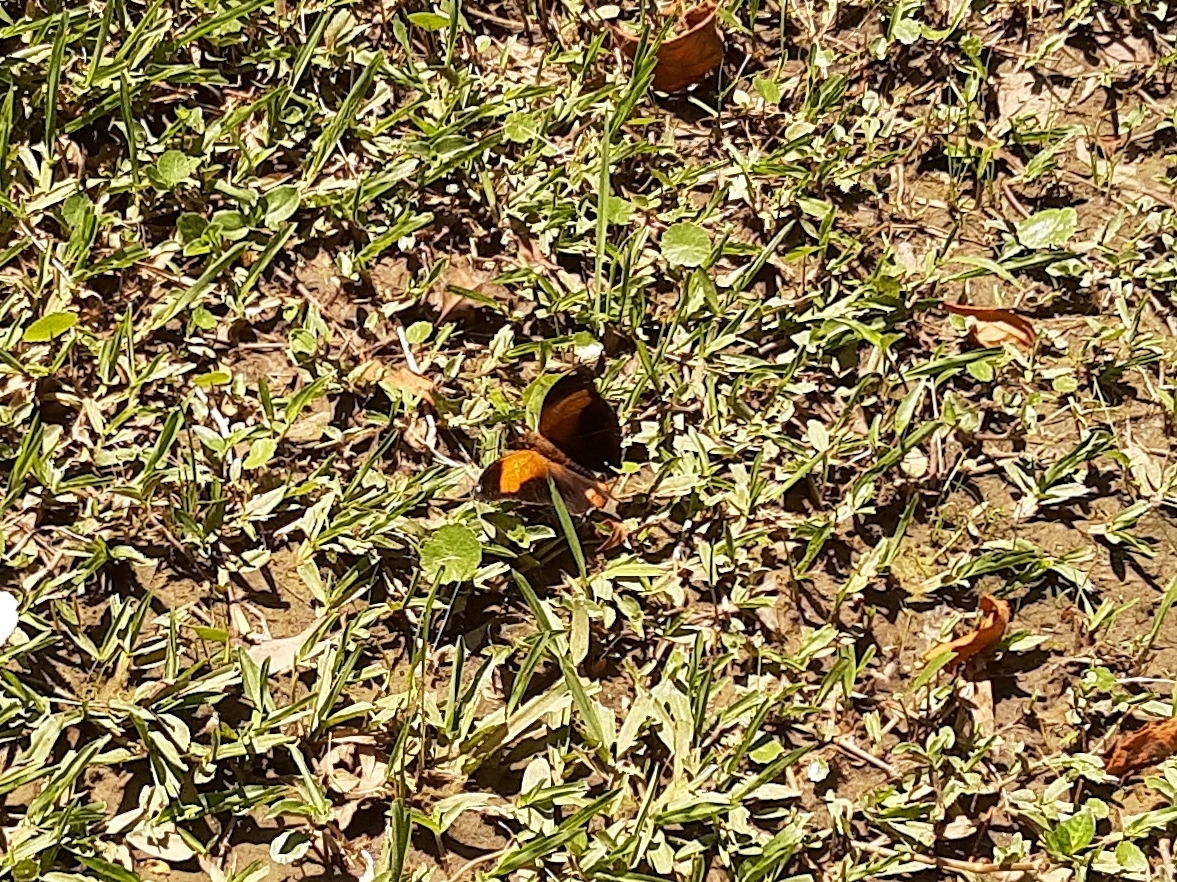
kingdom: Animalia
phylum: Arthropoda
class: Insecta
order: Lepidoptera
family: Nymphalidae
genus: Historis
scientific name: Historis odius
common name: Orion cecropian
